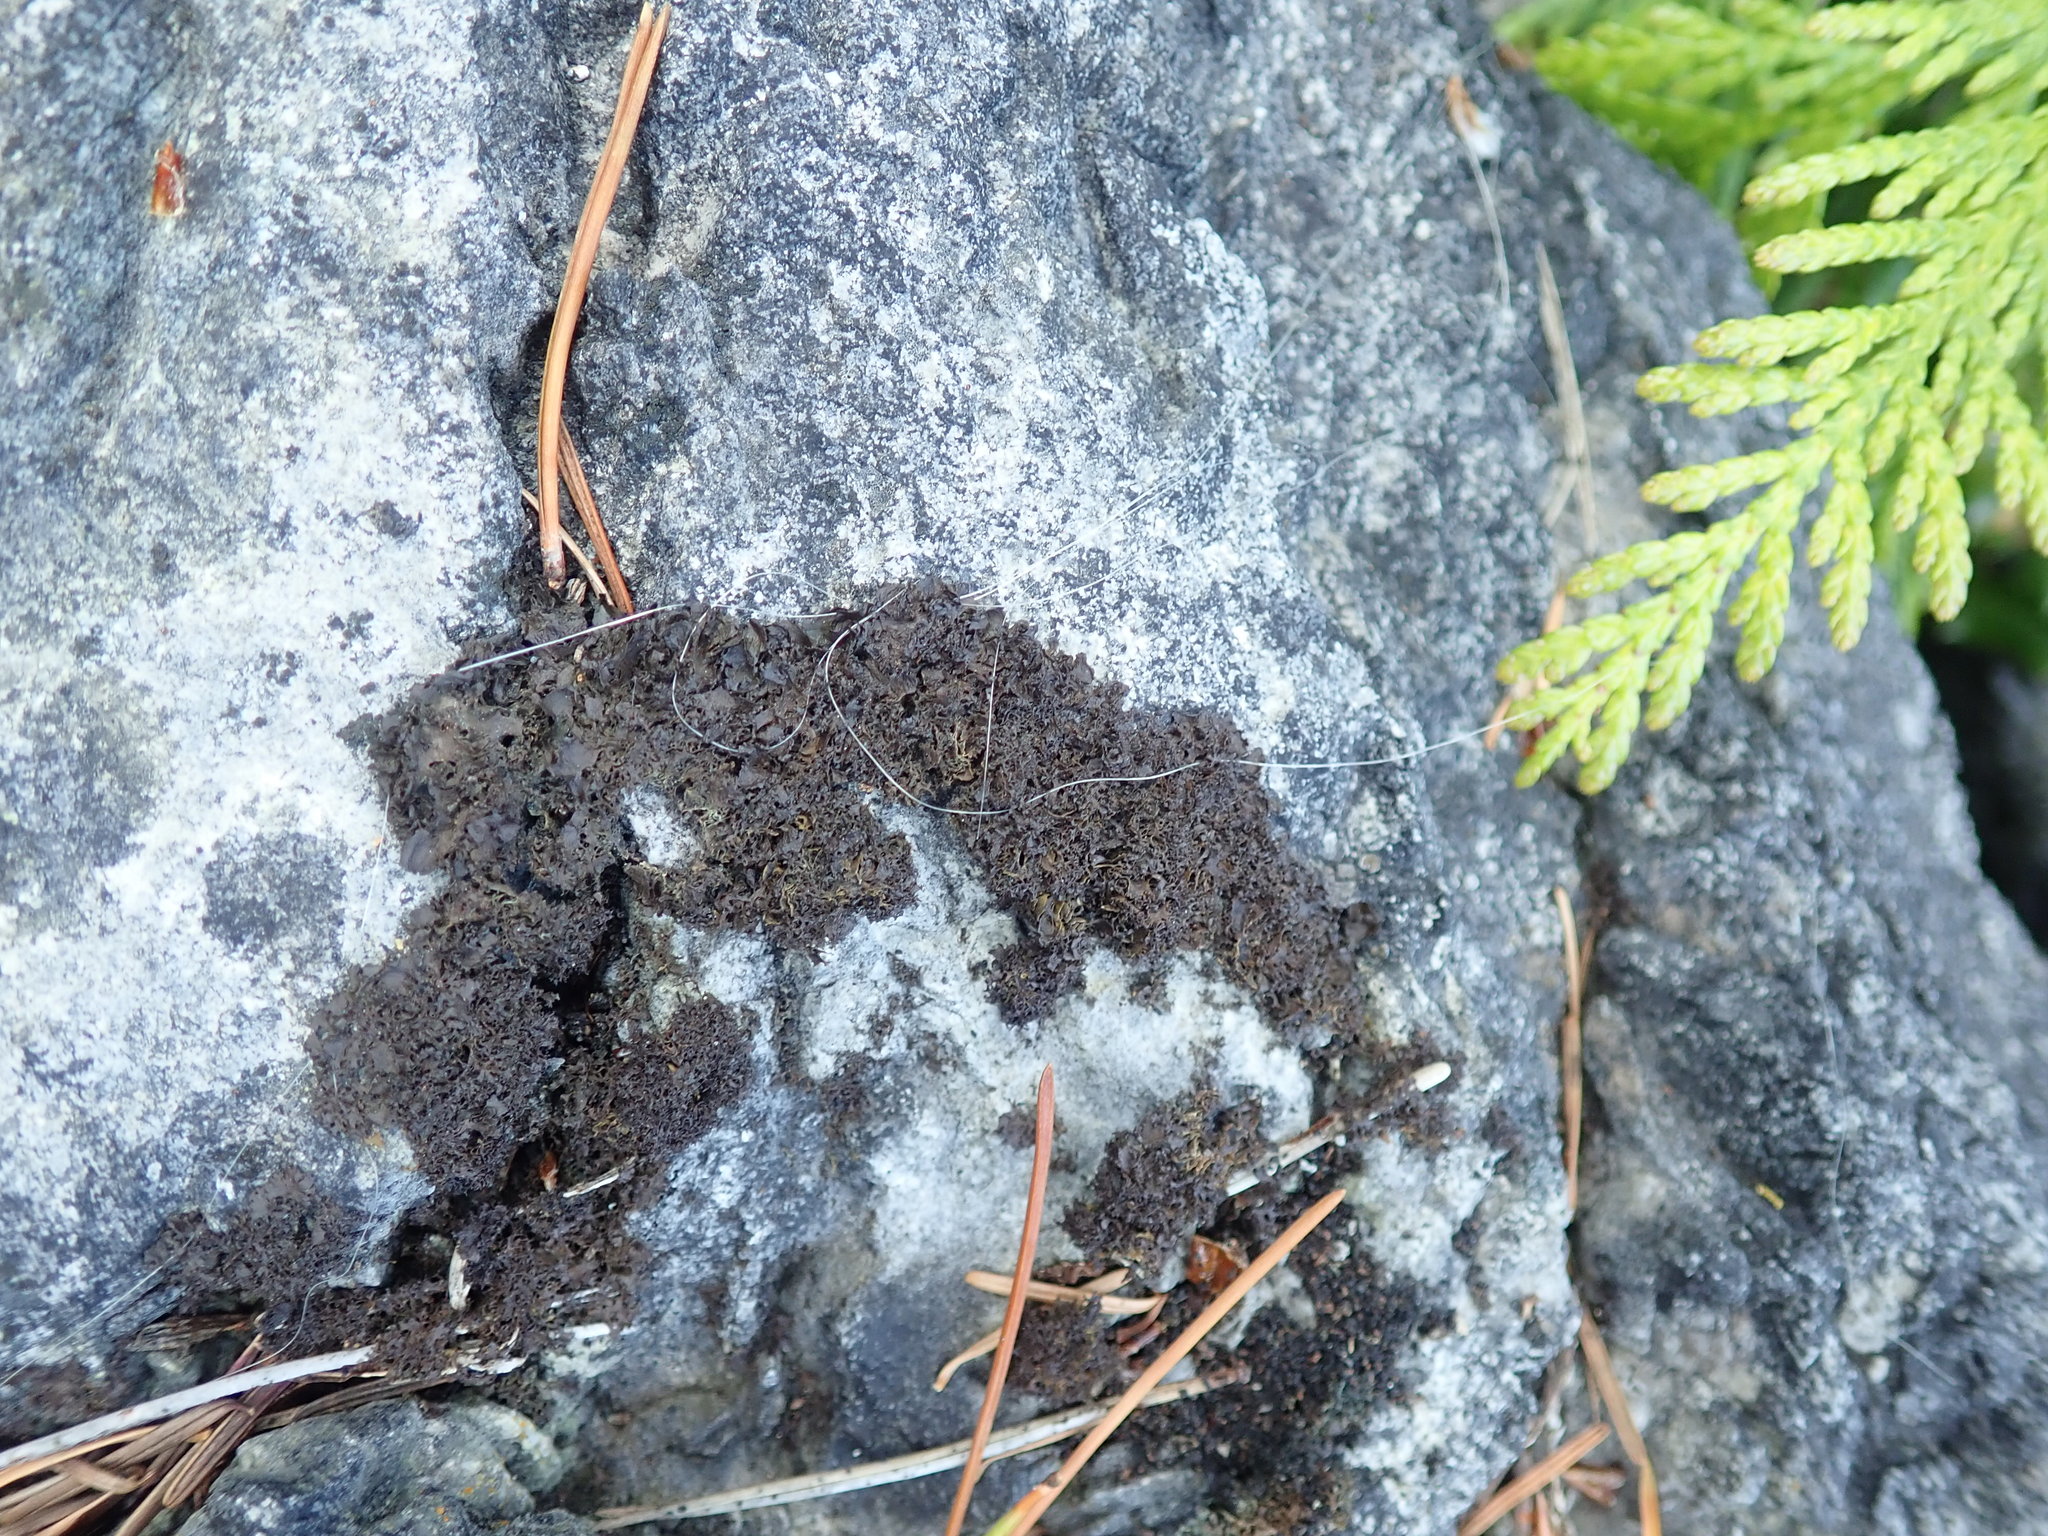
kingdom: Fungi
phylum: Ascomycota
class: Lecanoromycetes
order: Peltigerales
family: Collemataceae
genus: Scytinium
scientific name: Scytinium gelatinosum
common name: Rose-petalled jellyskin lichen
